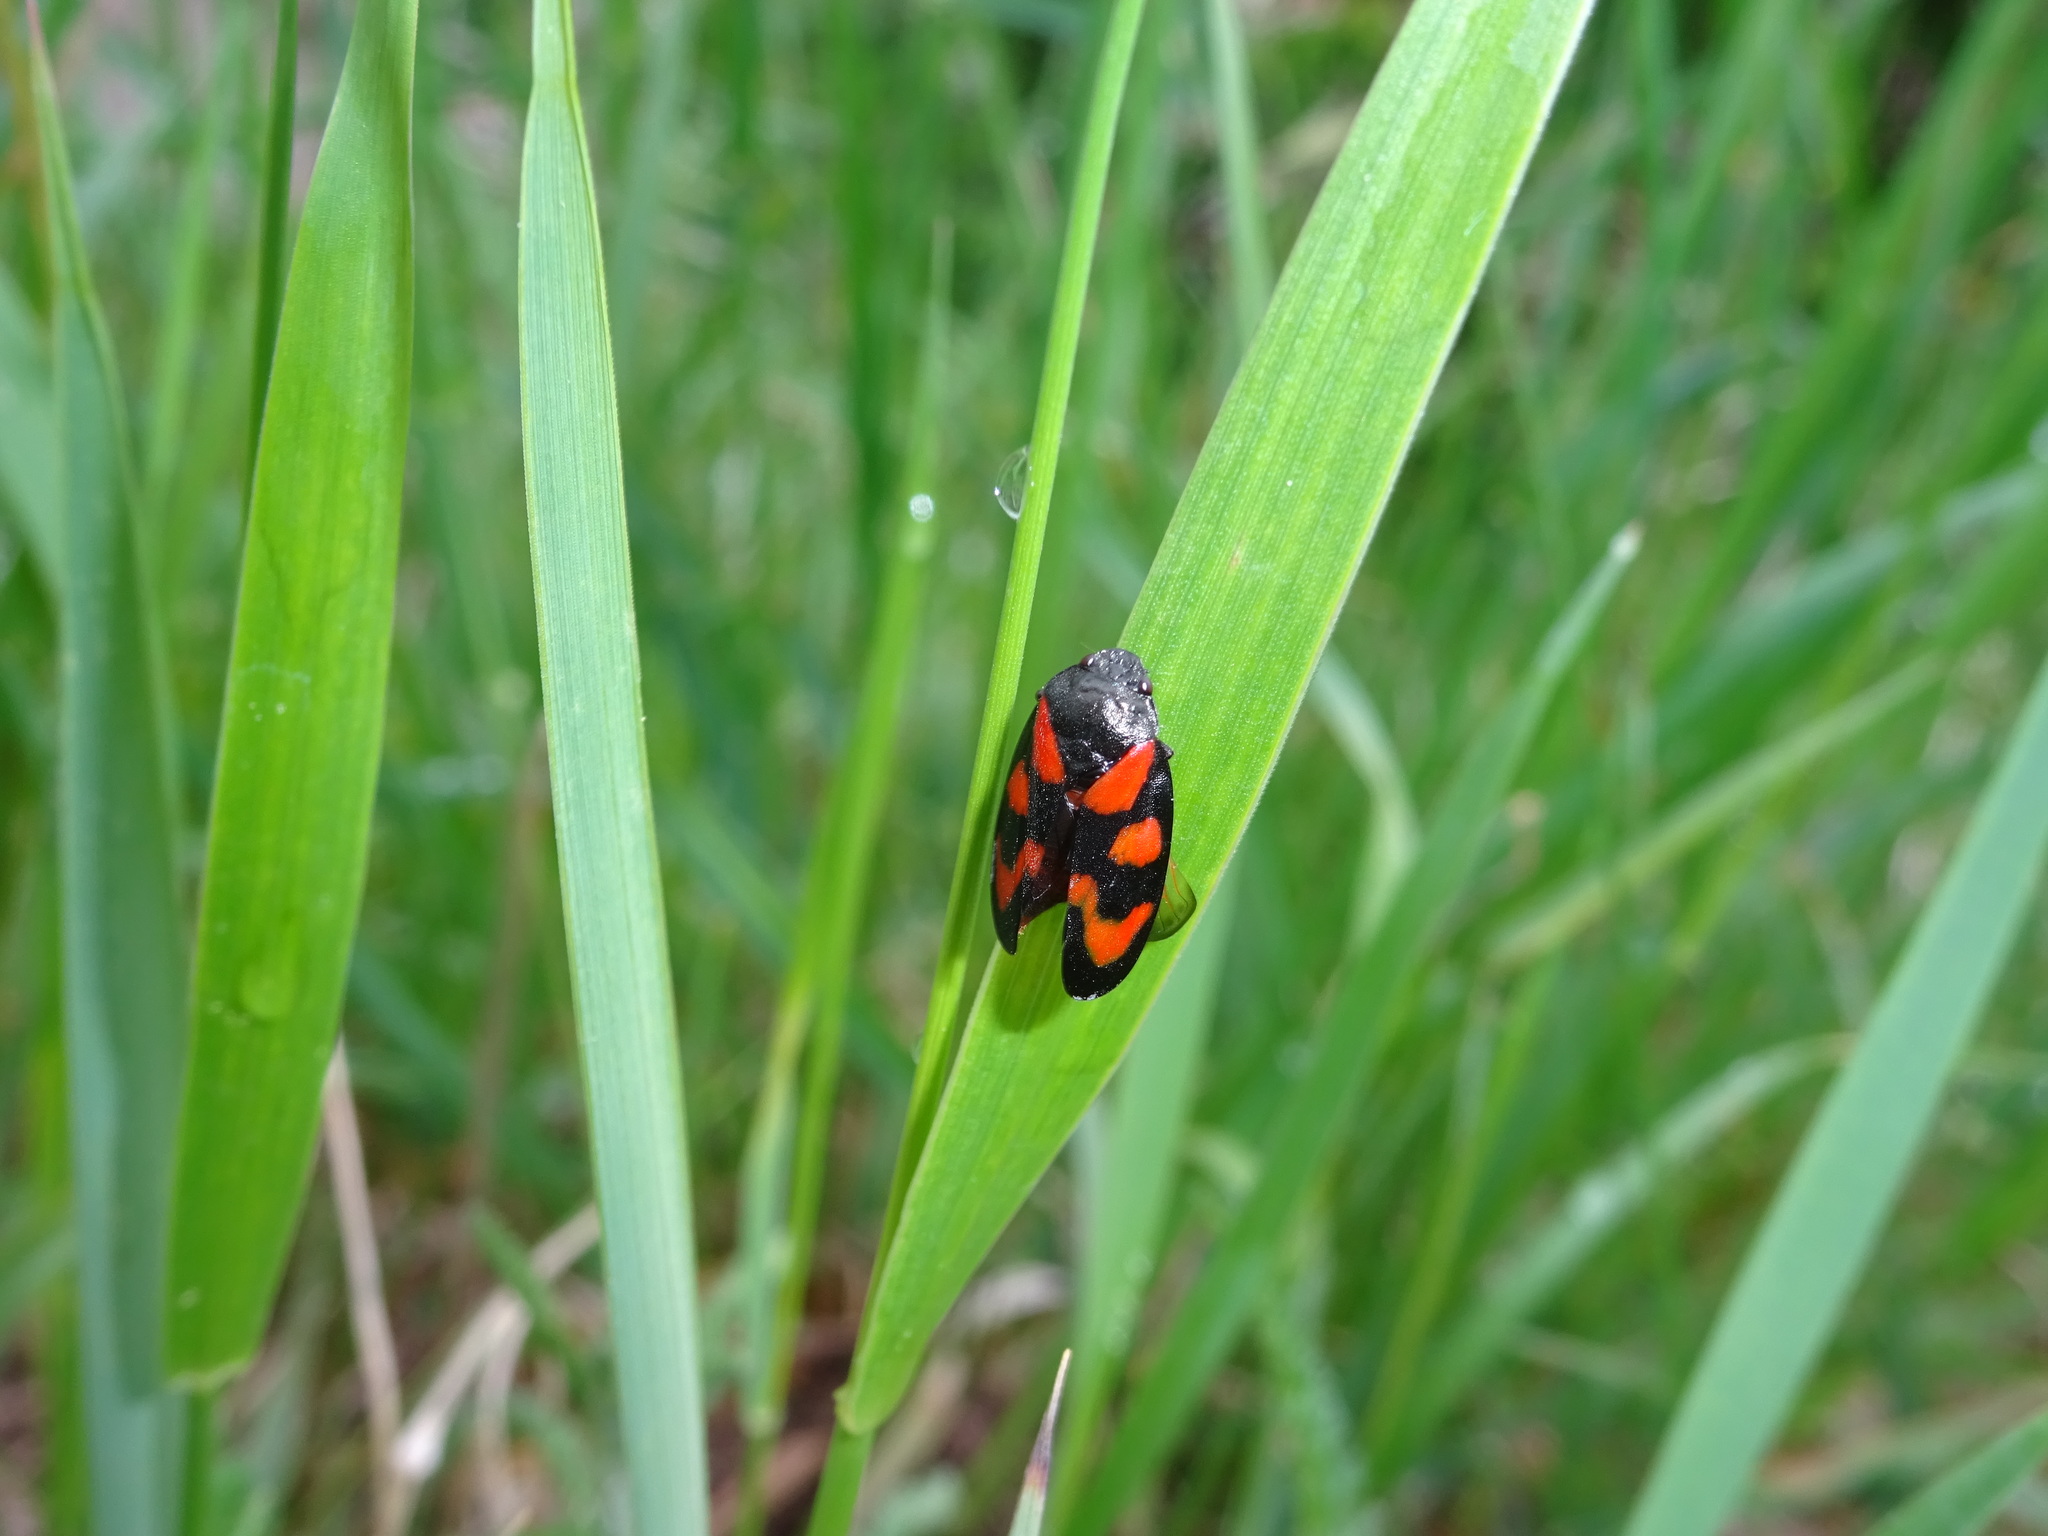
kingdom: Animalia
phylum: Arthropoda
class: Insecta
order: Hemiptera
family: Cercopidae
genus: Cercopis
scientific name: Cercopis vulnerata
